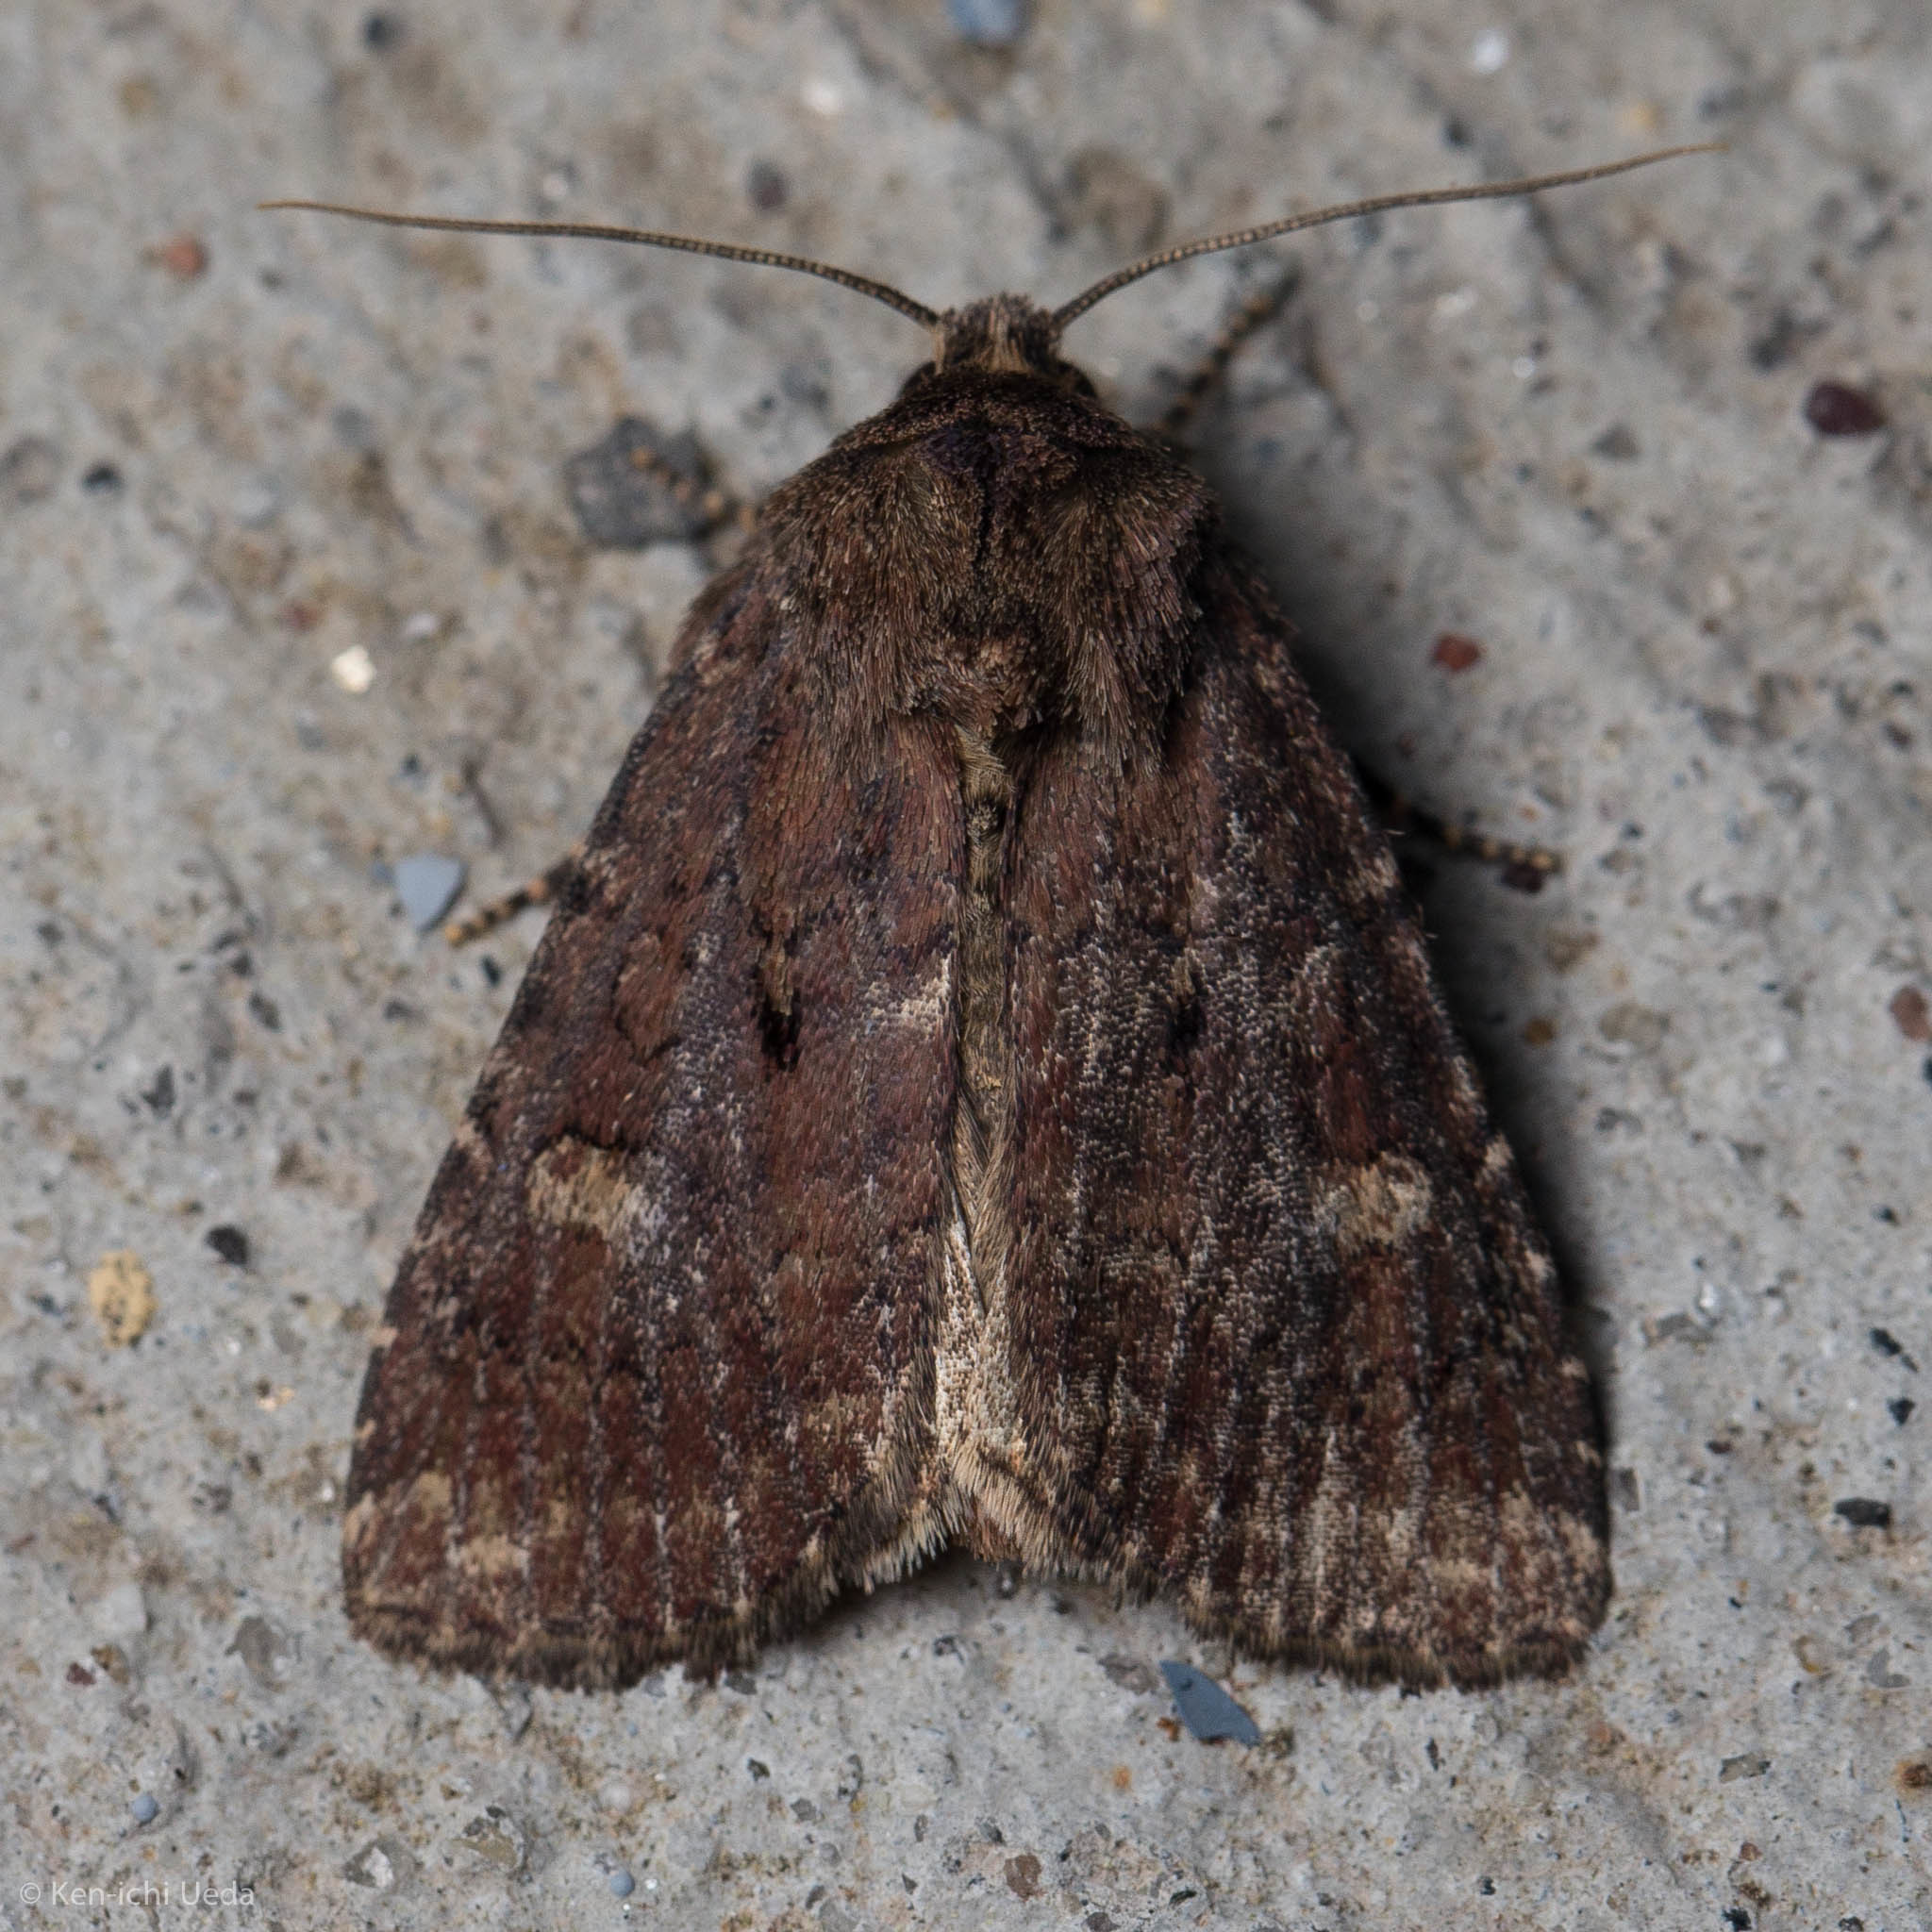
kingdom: Animalia
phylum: Arthropoda
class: Insecta
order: Lepidoptera
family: Noctuidae
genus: Orthodes
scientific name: Orthodes goodelli
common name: Goodell's arches moth
